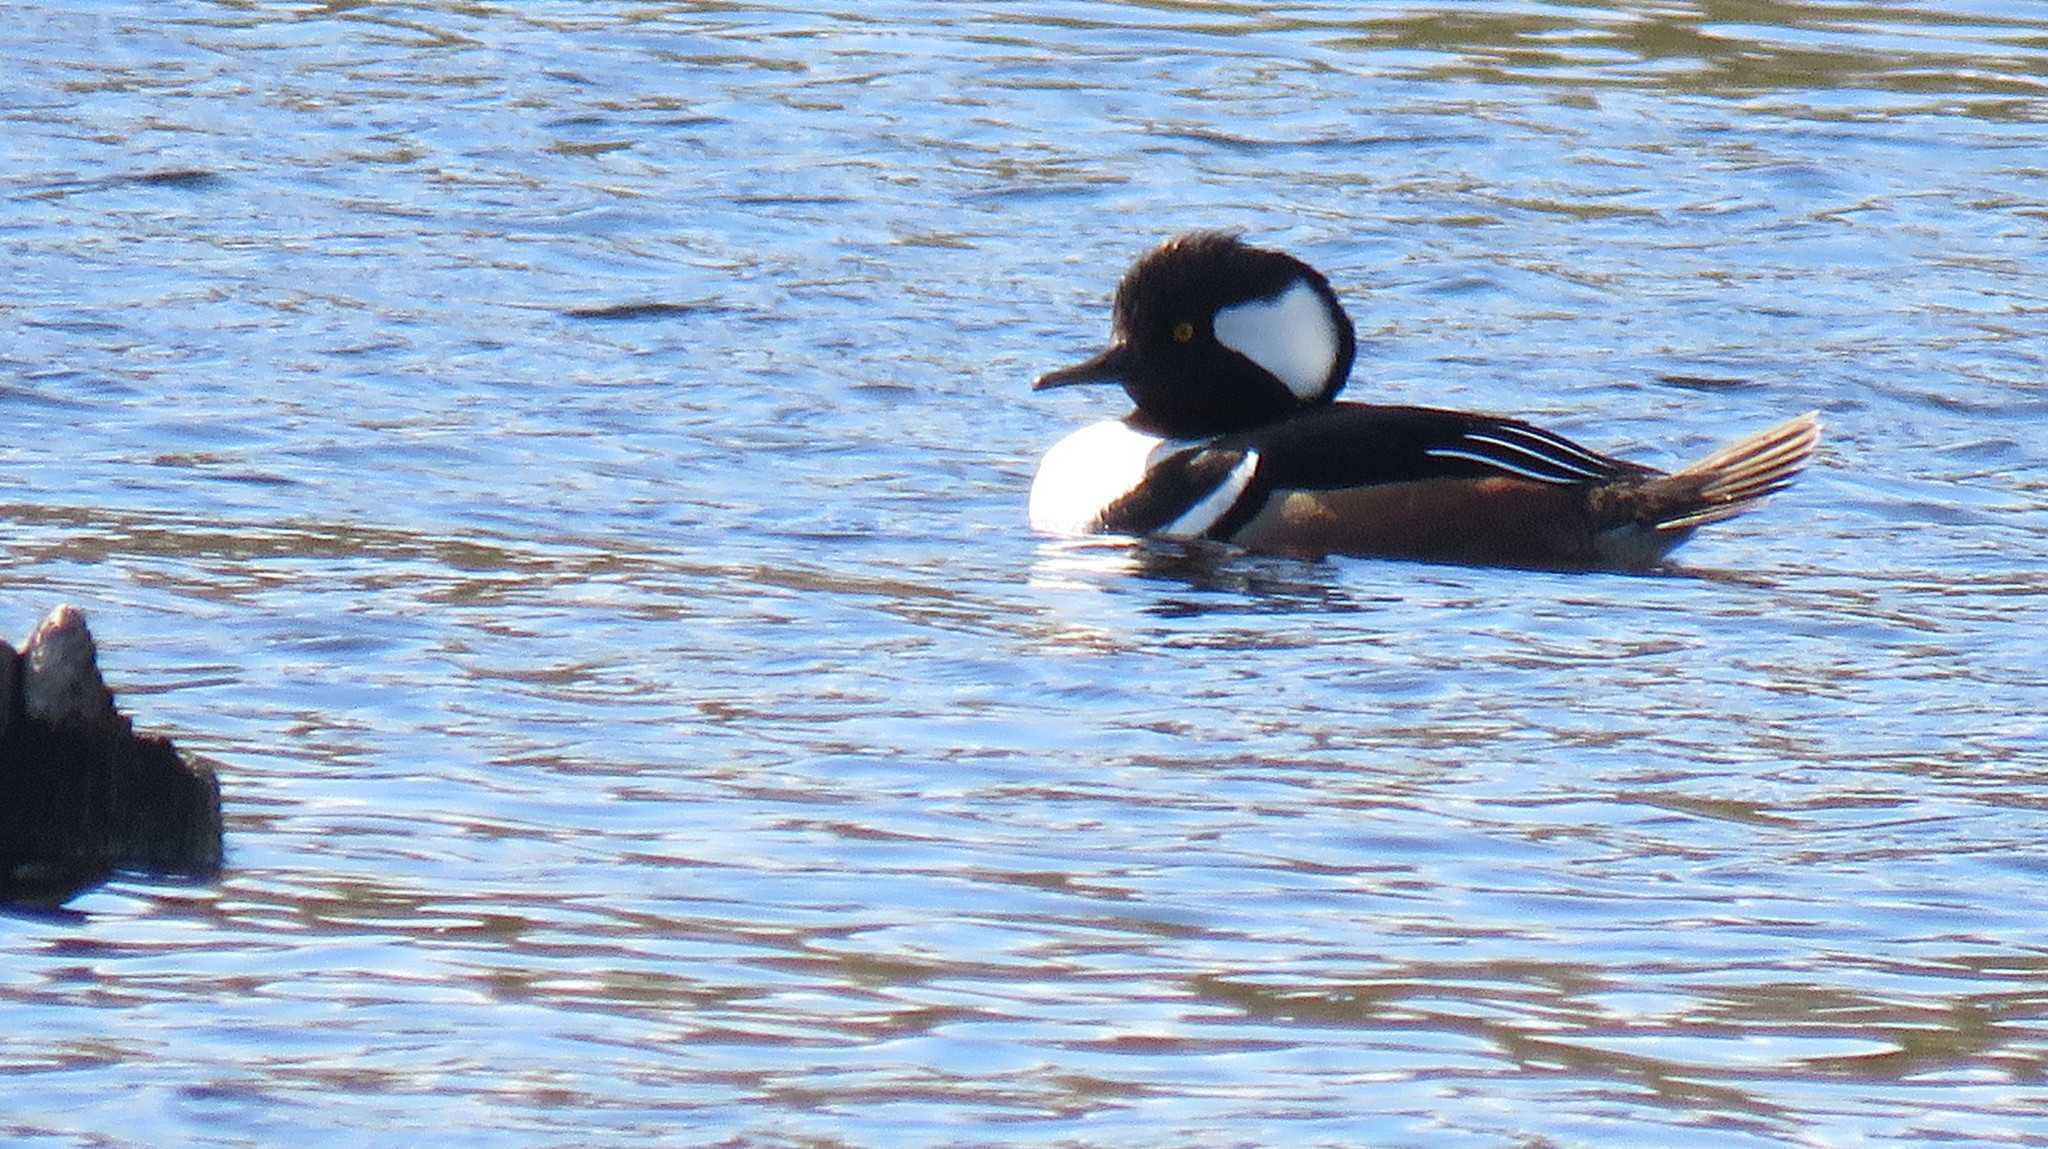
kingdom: Animalia
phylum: Chordata
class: Aves
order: Anseriformes
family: Anatidae
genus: Lophodytes
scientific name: Lophodytes cucullatus
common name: Hooded merganser
